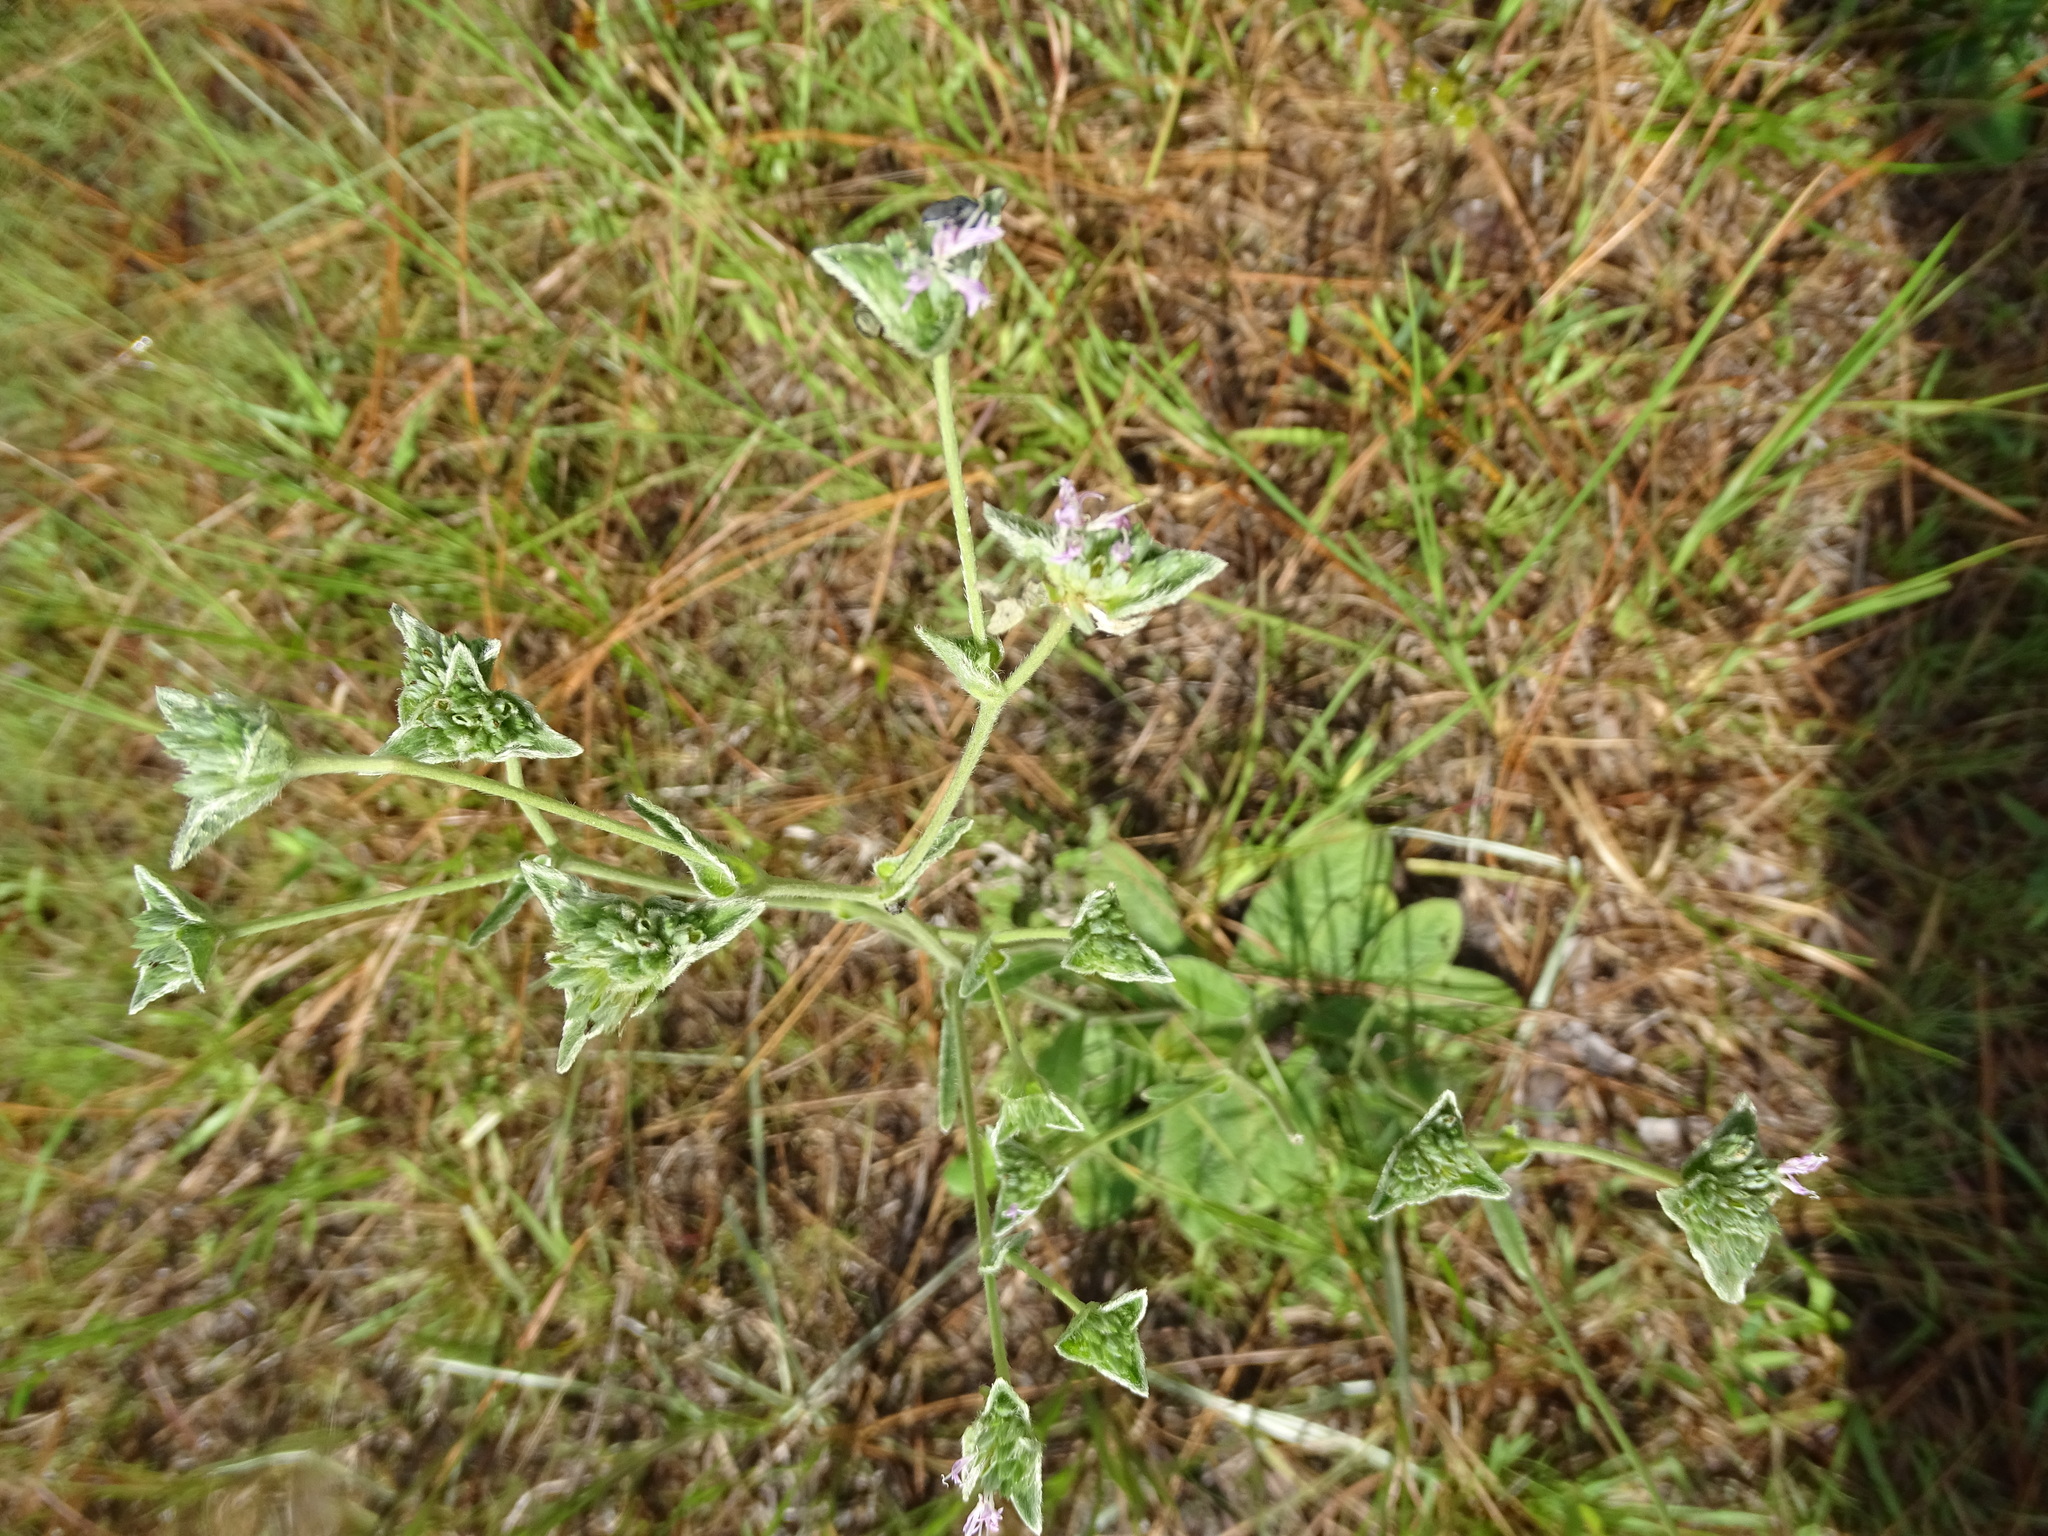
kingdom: Plantae
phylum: Tracheophyta
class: Magnoliopsida
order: Asterales
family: Asteraceae
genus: Elephantopus
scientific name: Elephantopus elatus
